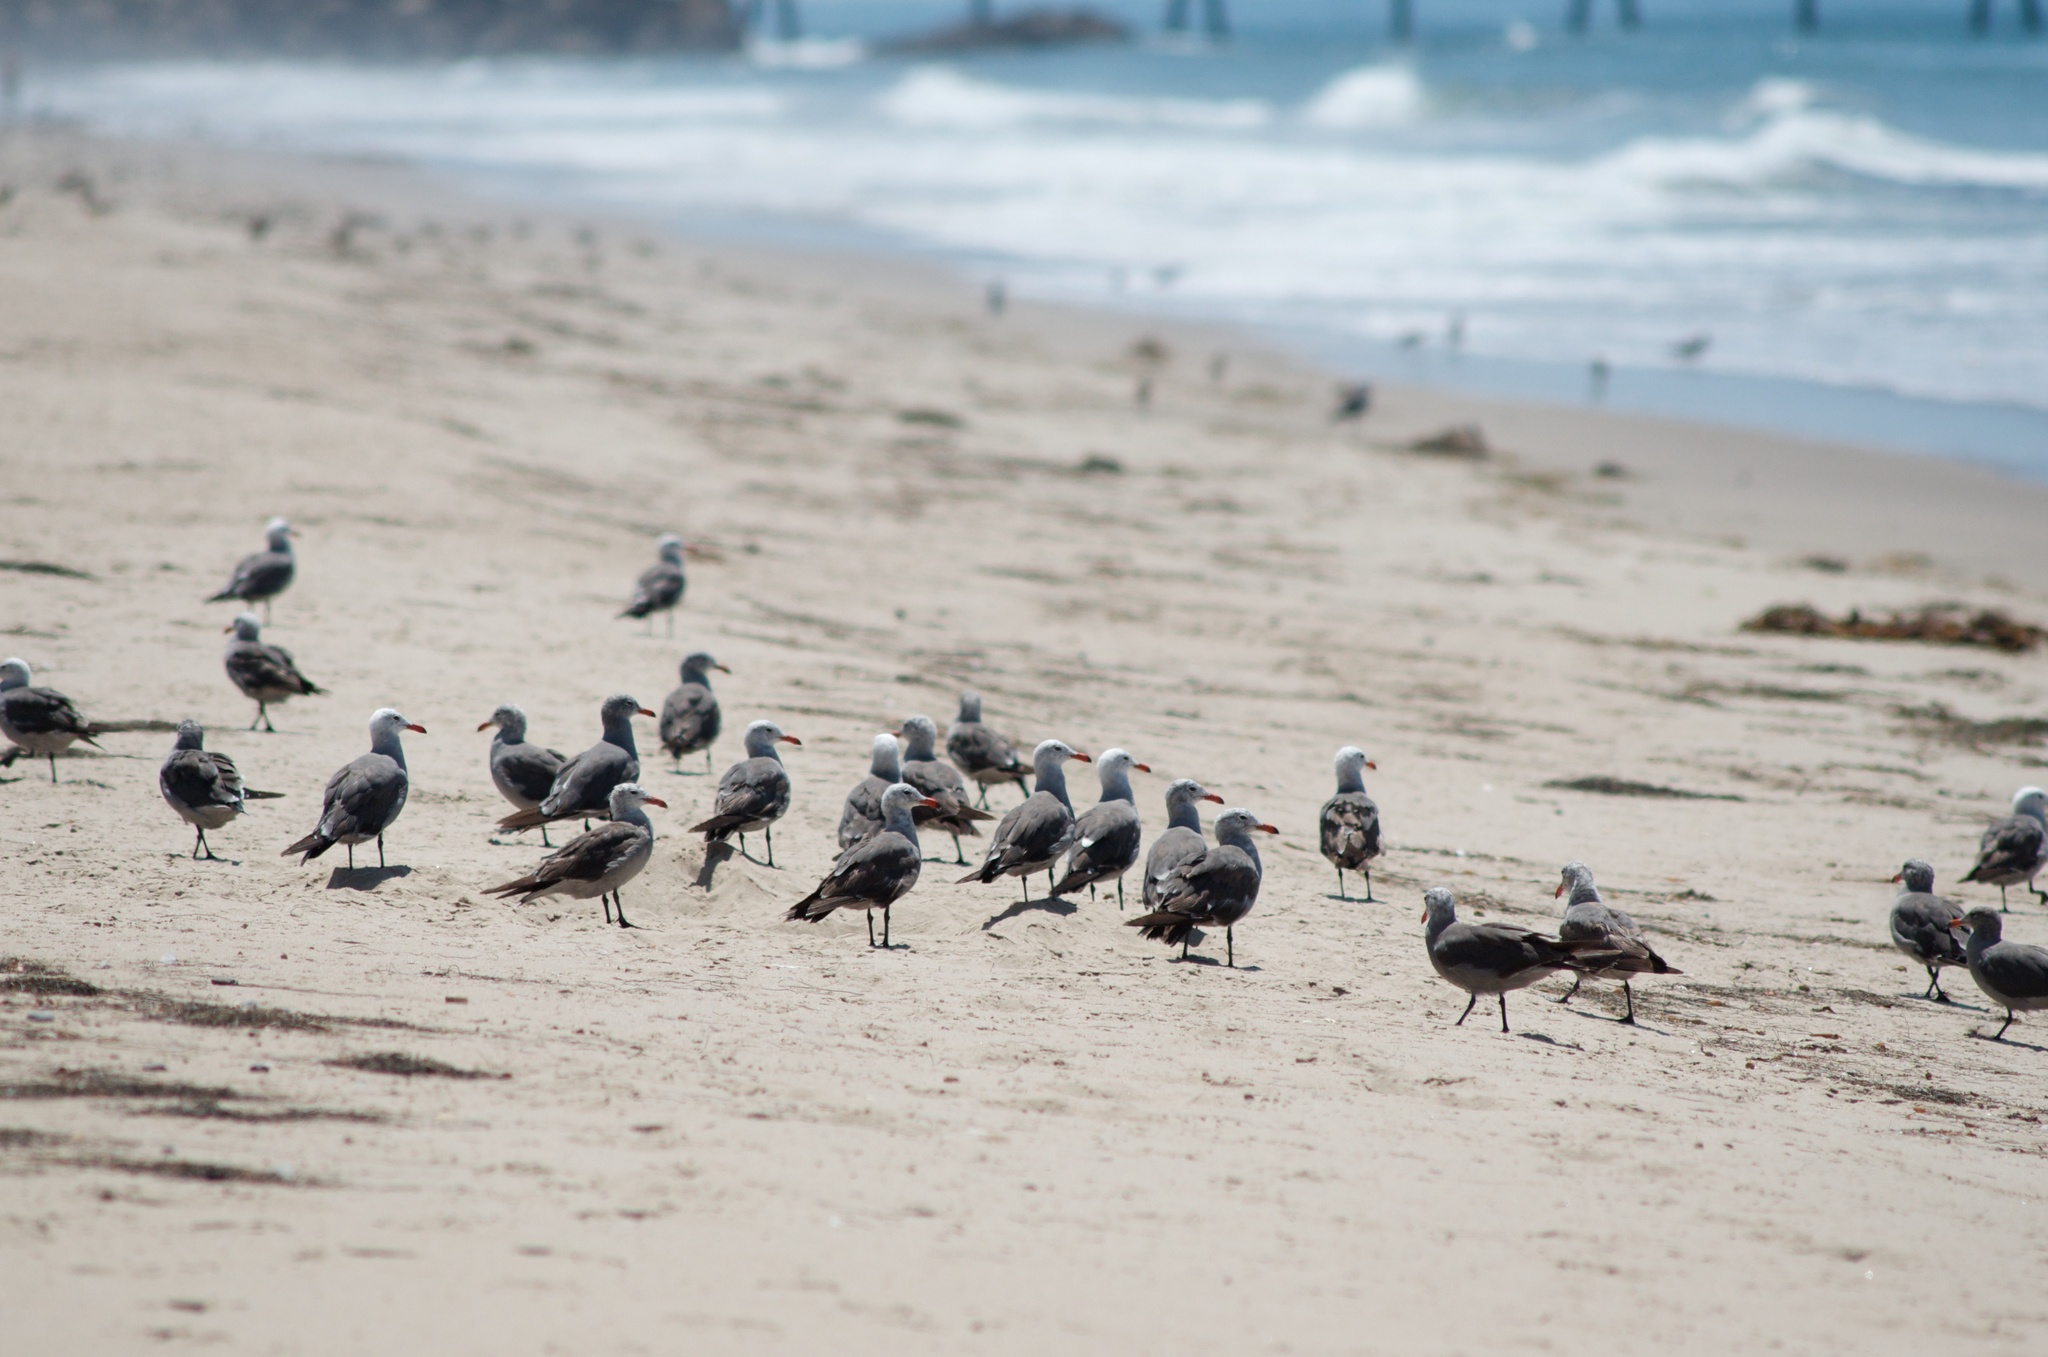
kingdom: Animalia
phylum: Chordata
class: Aves
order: Charadriiformes
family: Laridae
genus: Larus
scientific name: Larus heermanni
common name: Heermann's gull
